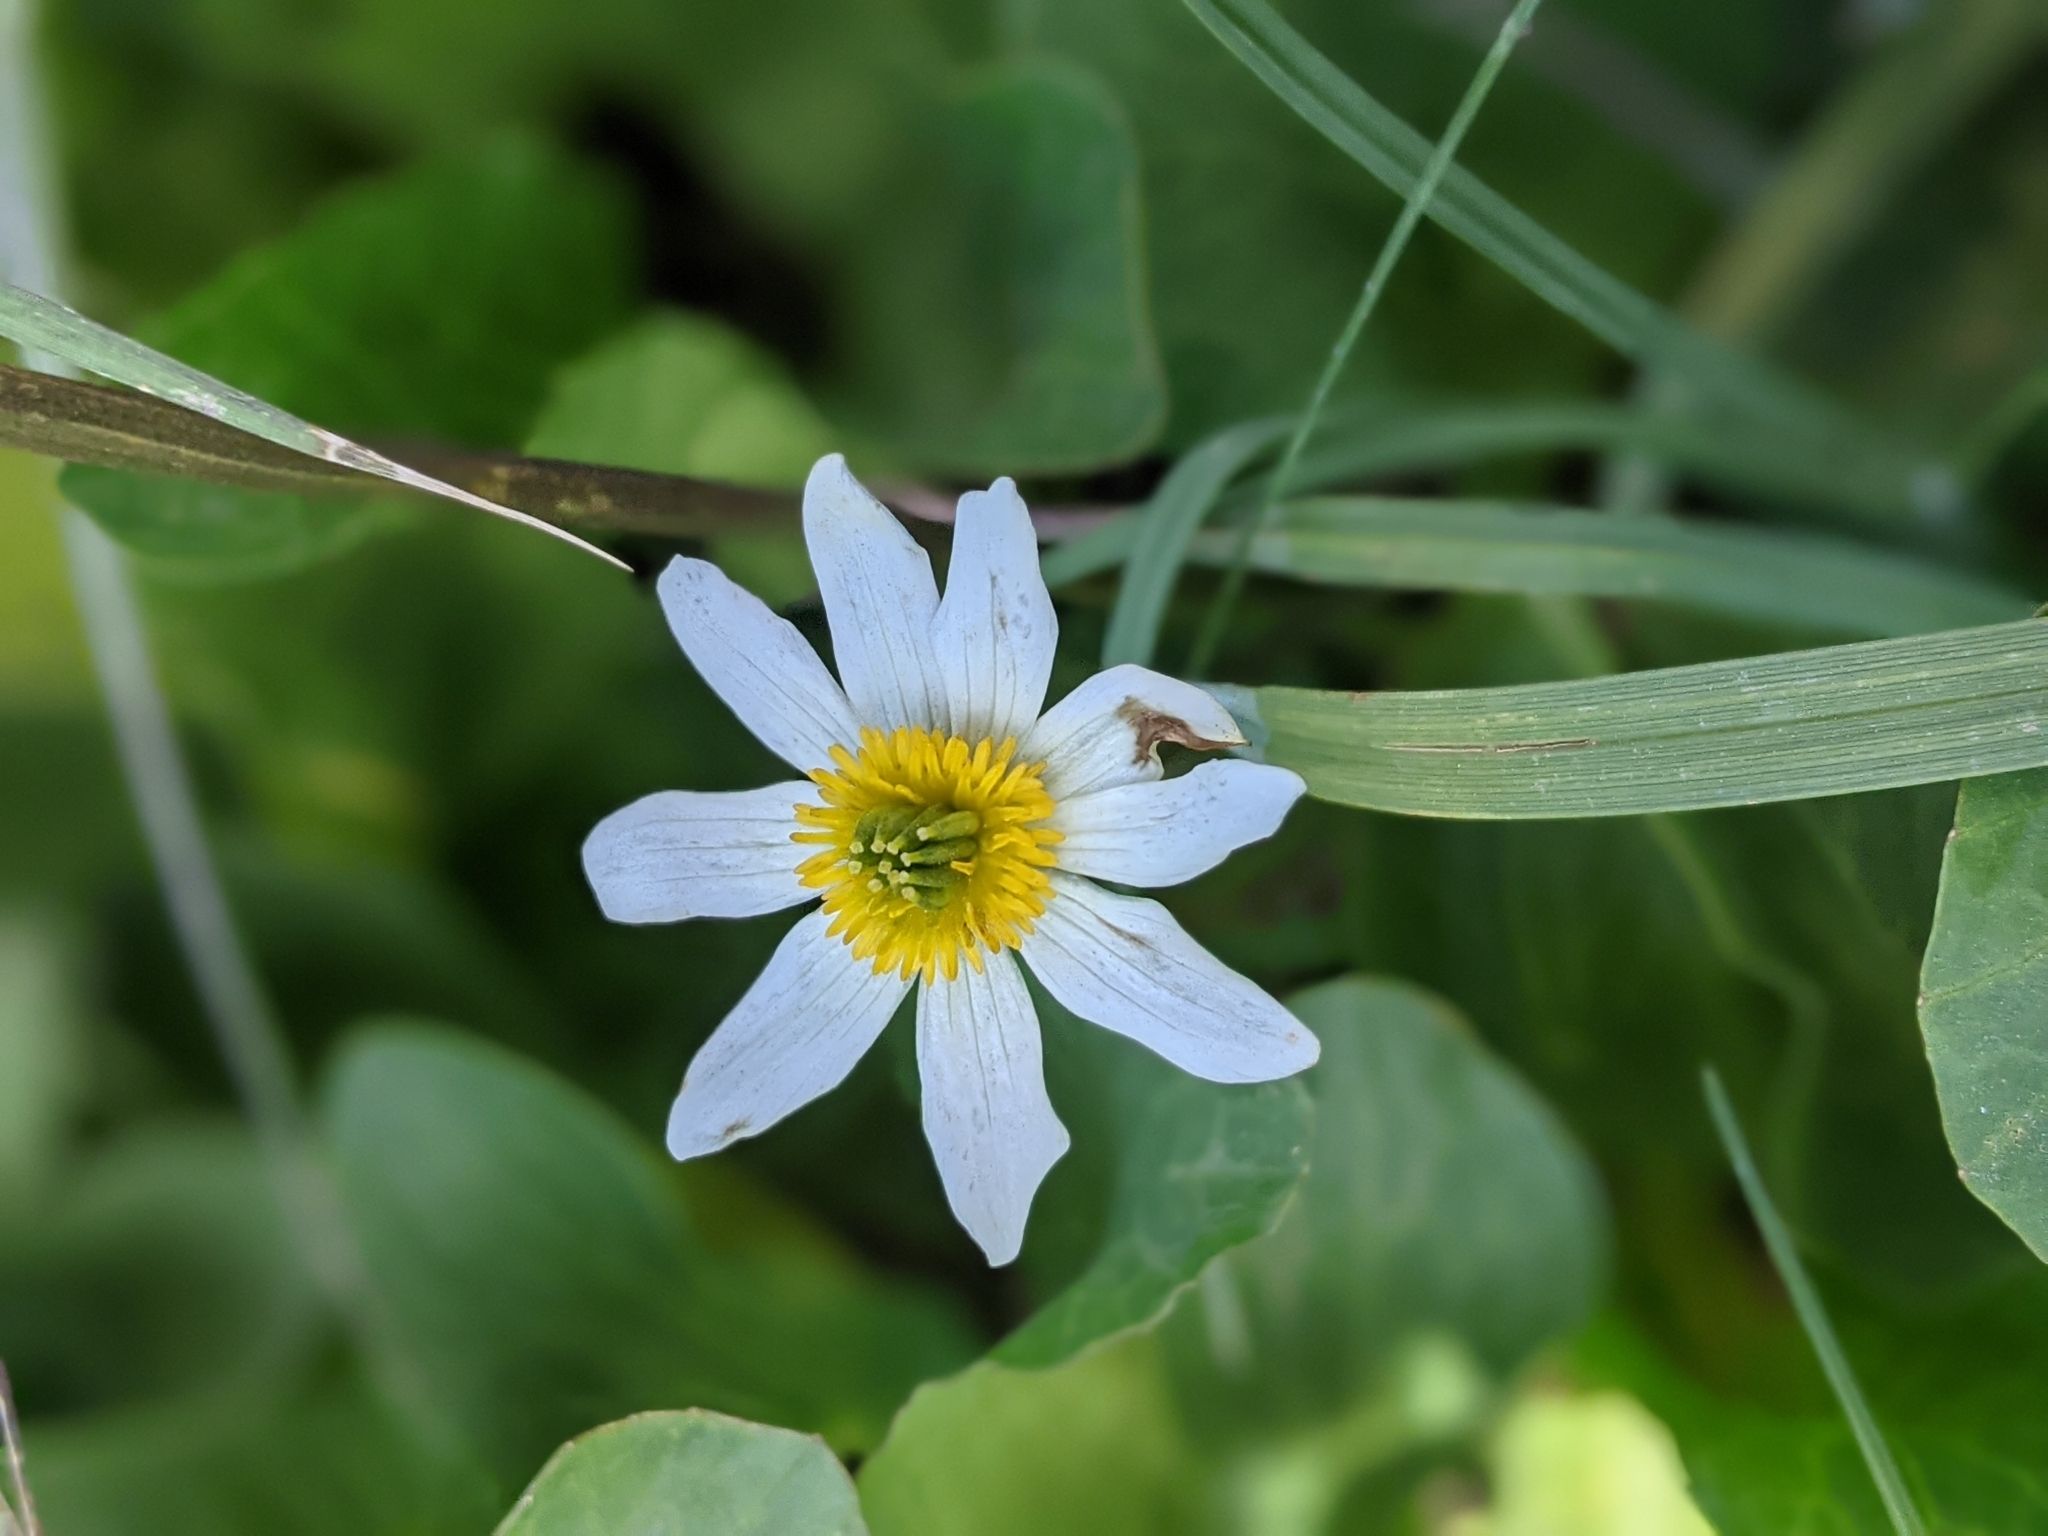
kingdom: Plantae
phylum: Tracheophyta
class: Magnoliopsida
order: Ranunculales
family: Ranunculaceae
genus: Caltha
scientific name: Caltha leptosepala
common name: Elkslip
